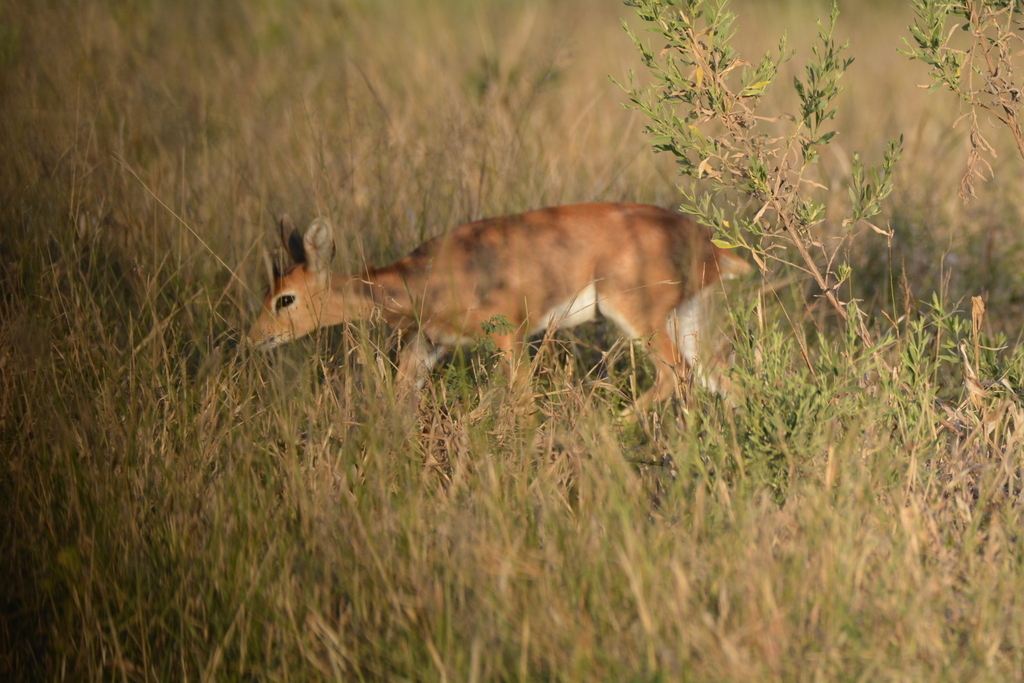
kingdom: Animalia
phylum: Chordata
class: Mammalia
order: Artiodactyla
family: Bovidae
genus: Raphicerus
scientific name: Raphicerus campestris
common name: Steenbok
